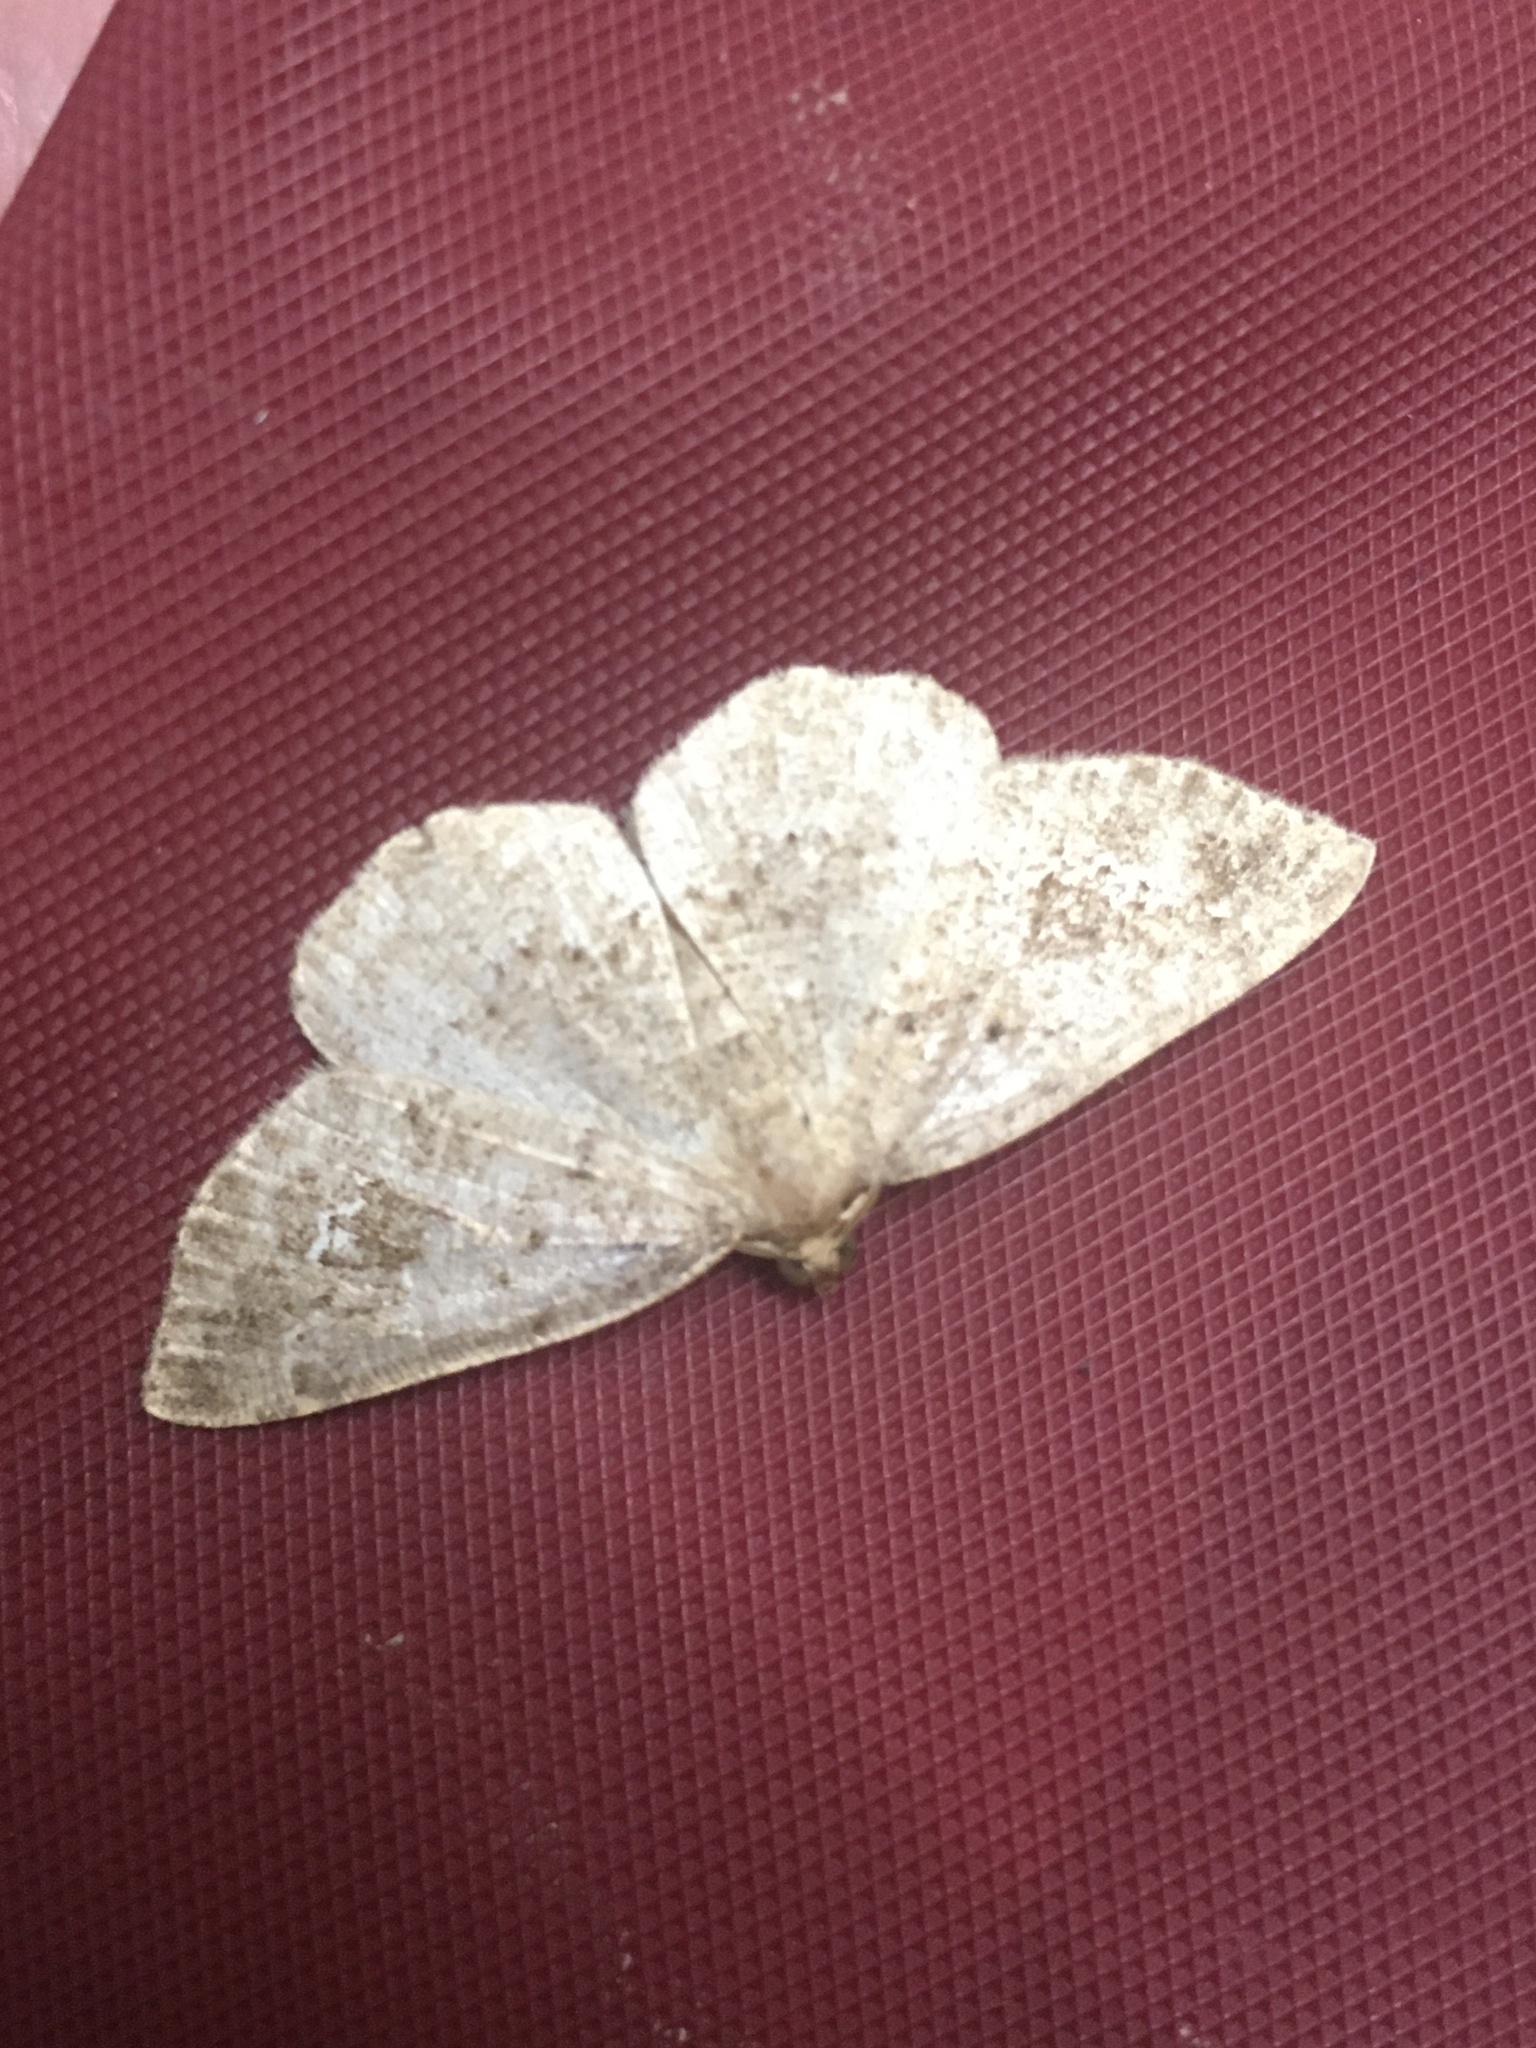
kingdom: Animalia
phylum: Arthropoda
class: Insecta
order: Lepidoptera
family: Geometridae
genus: Homochlodes
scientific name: Homochlodes fritillaria
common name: Pale homochlodes
